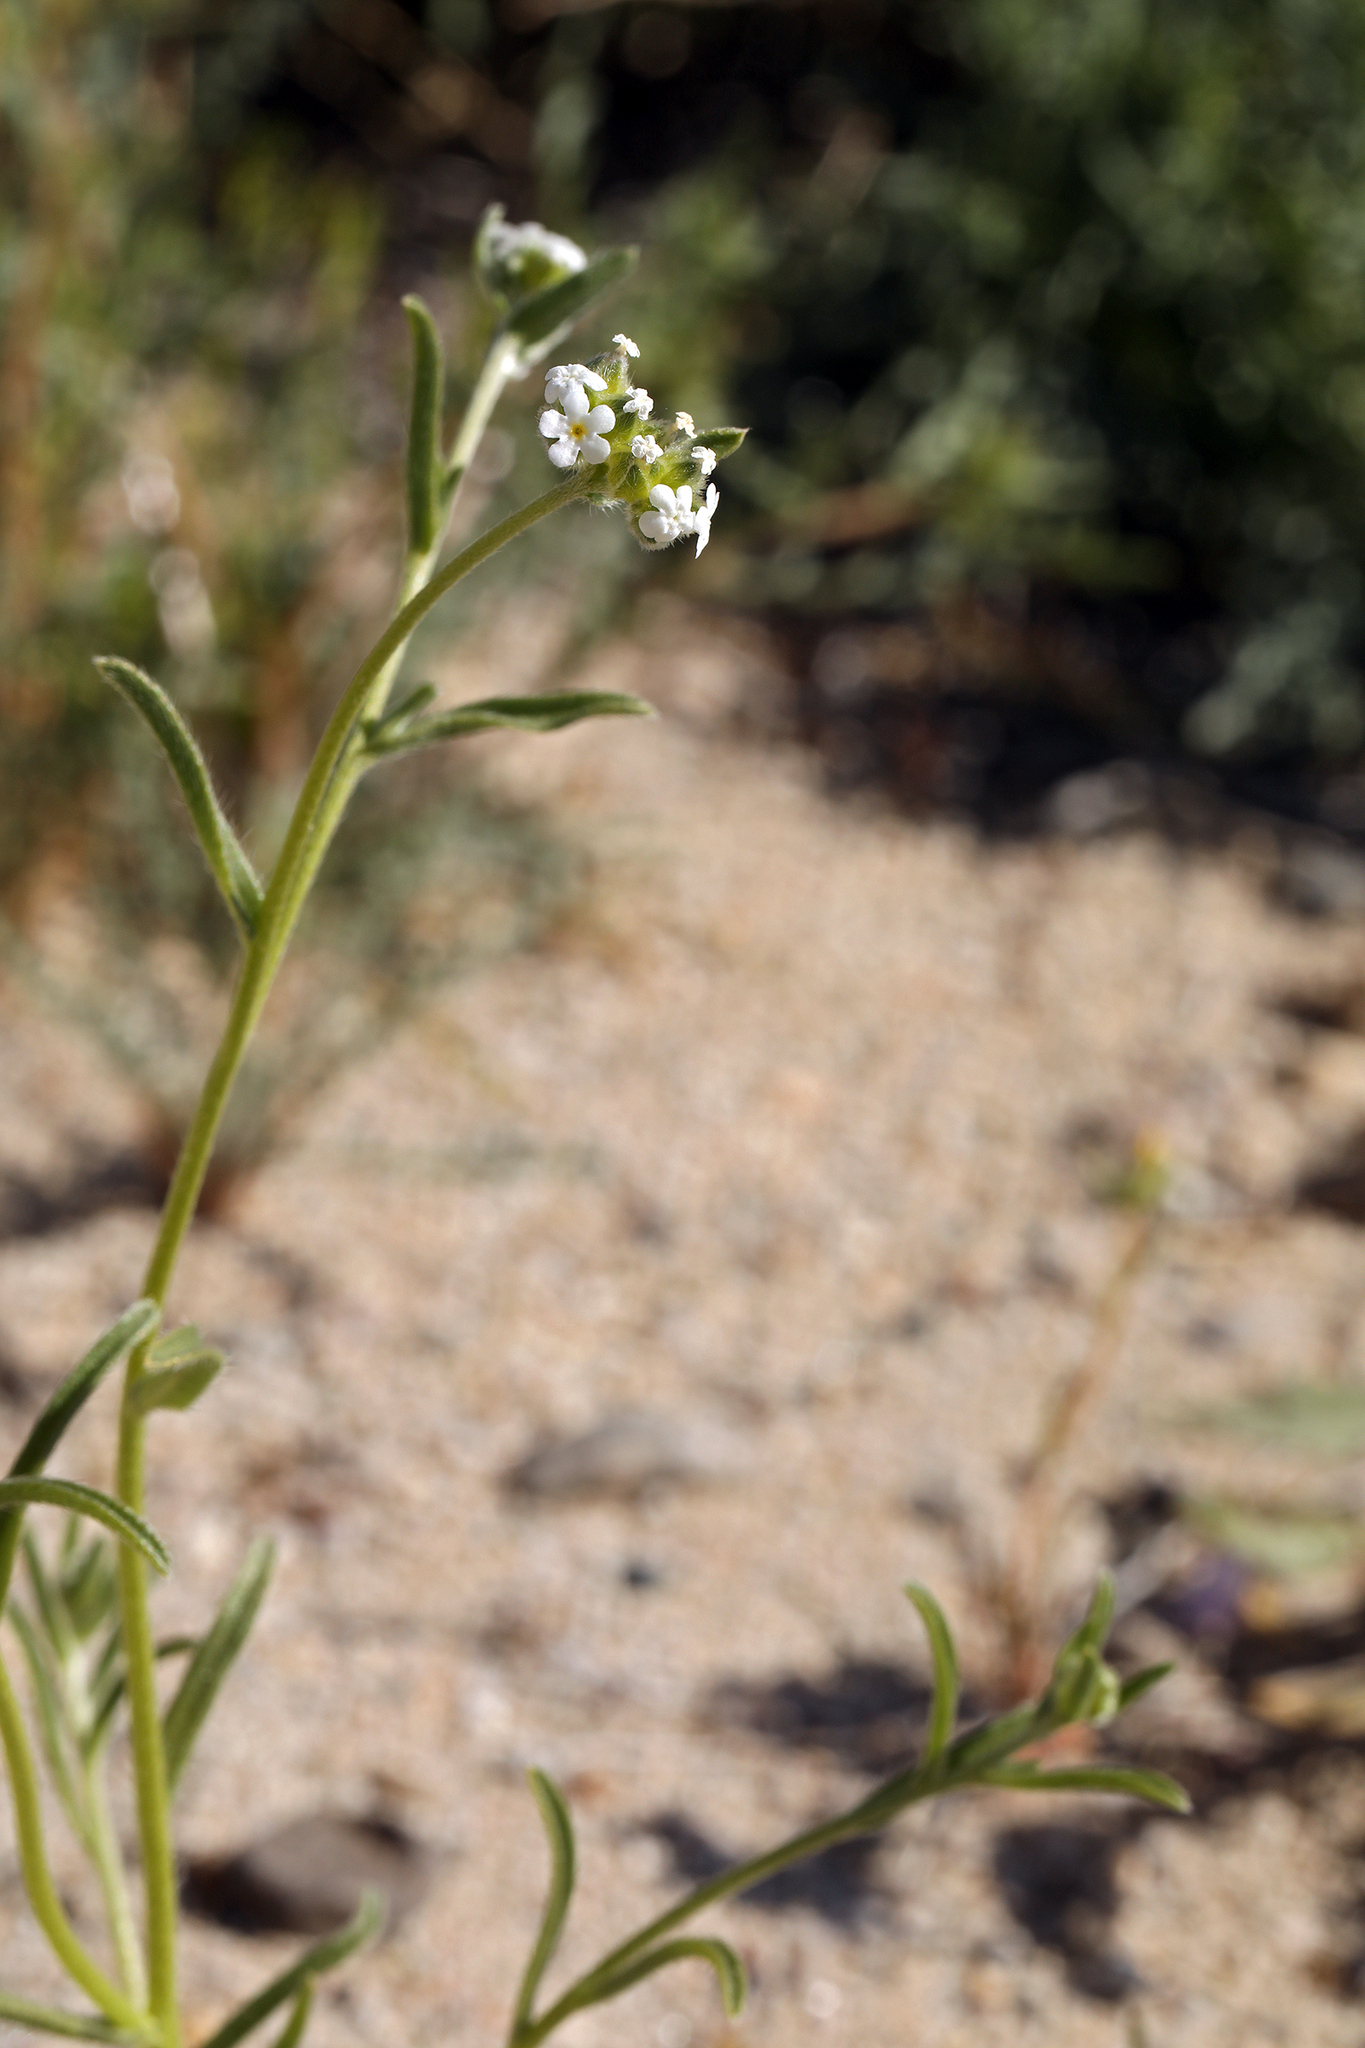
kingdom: Plantae
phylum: Tracheophyta
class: Magnoliopsida
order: Boraginales
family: Boraginaceae
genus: Cryptantha
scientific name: Cryptantha pterocarya
